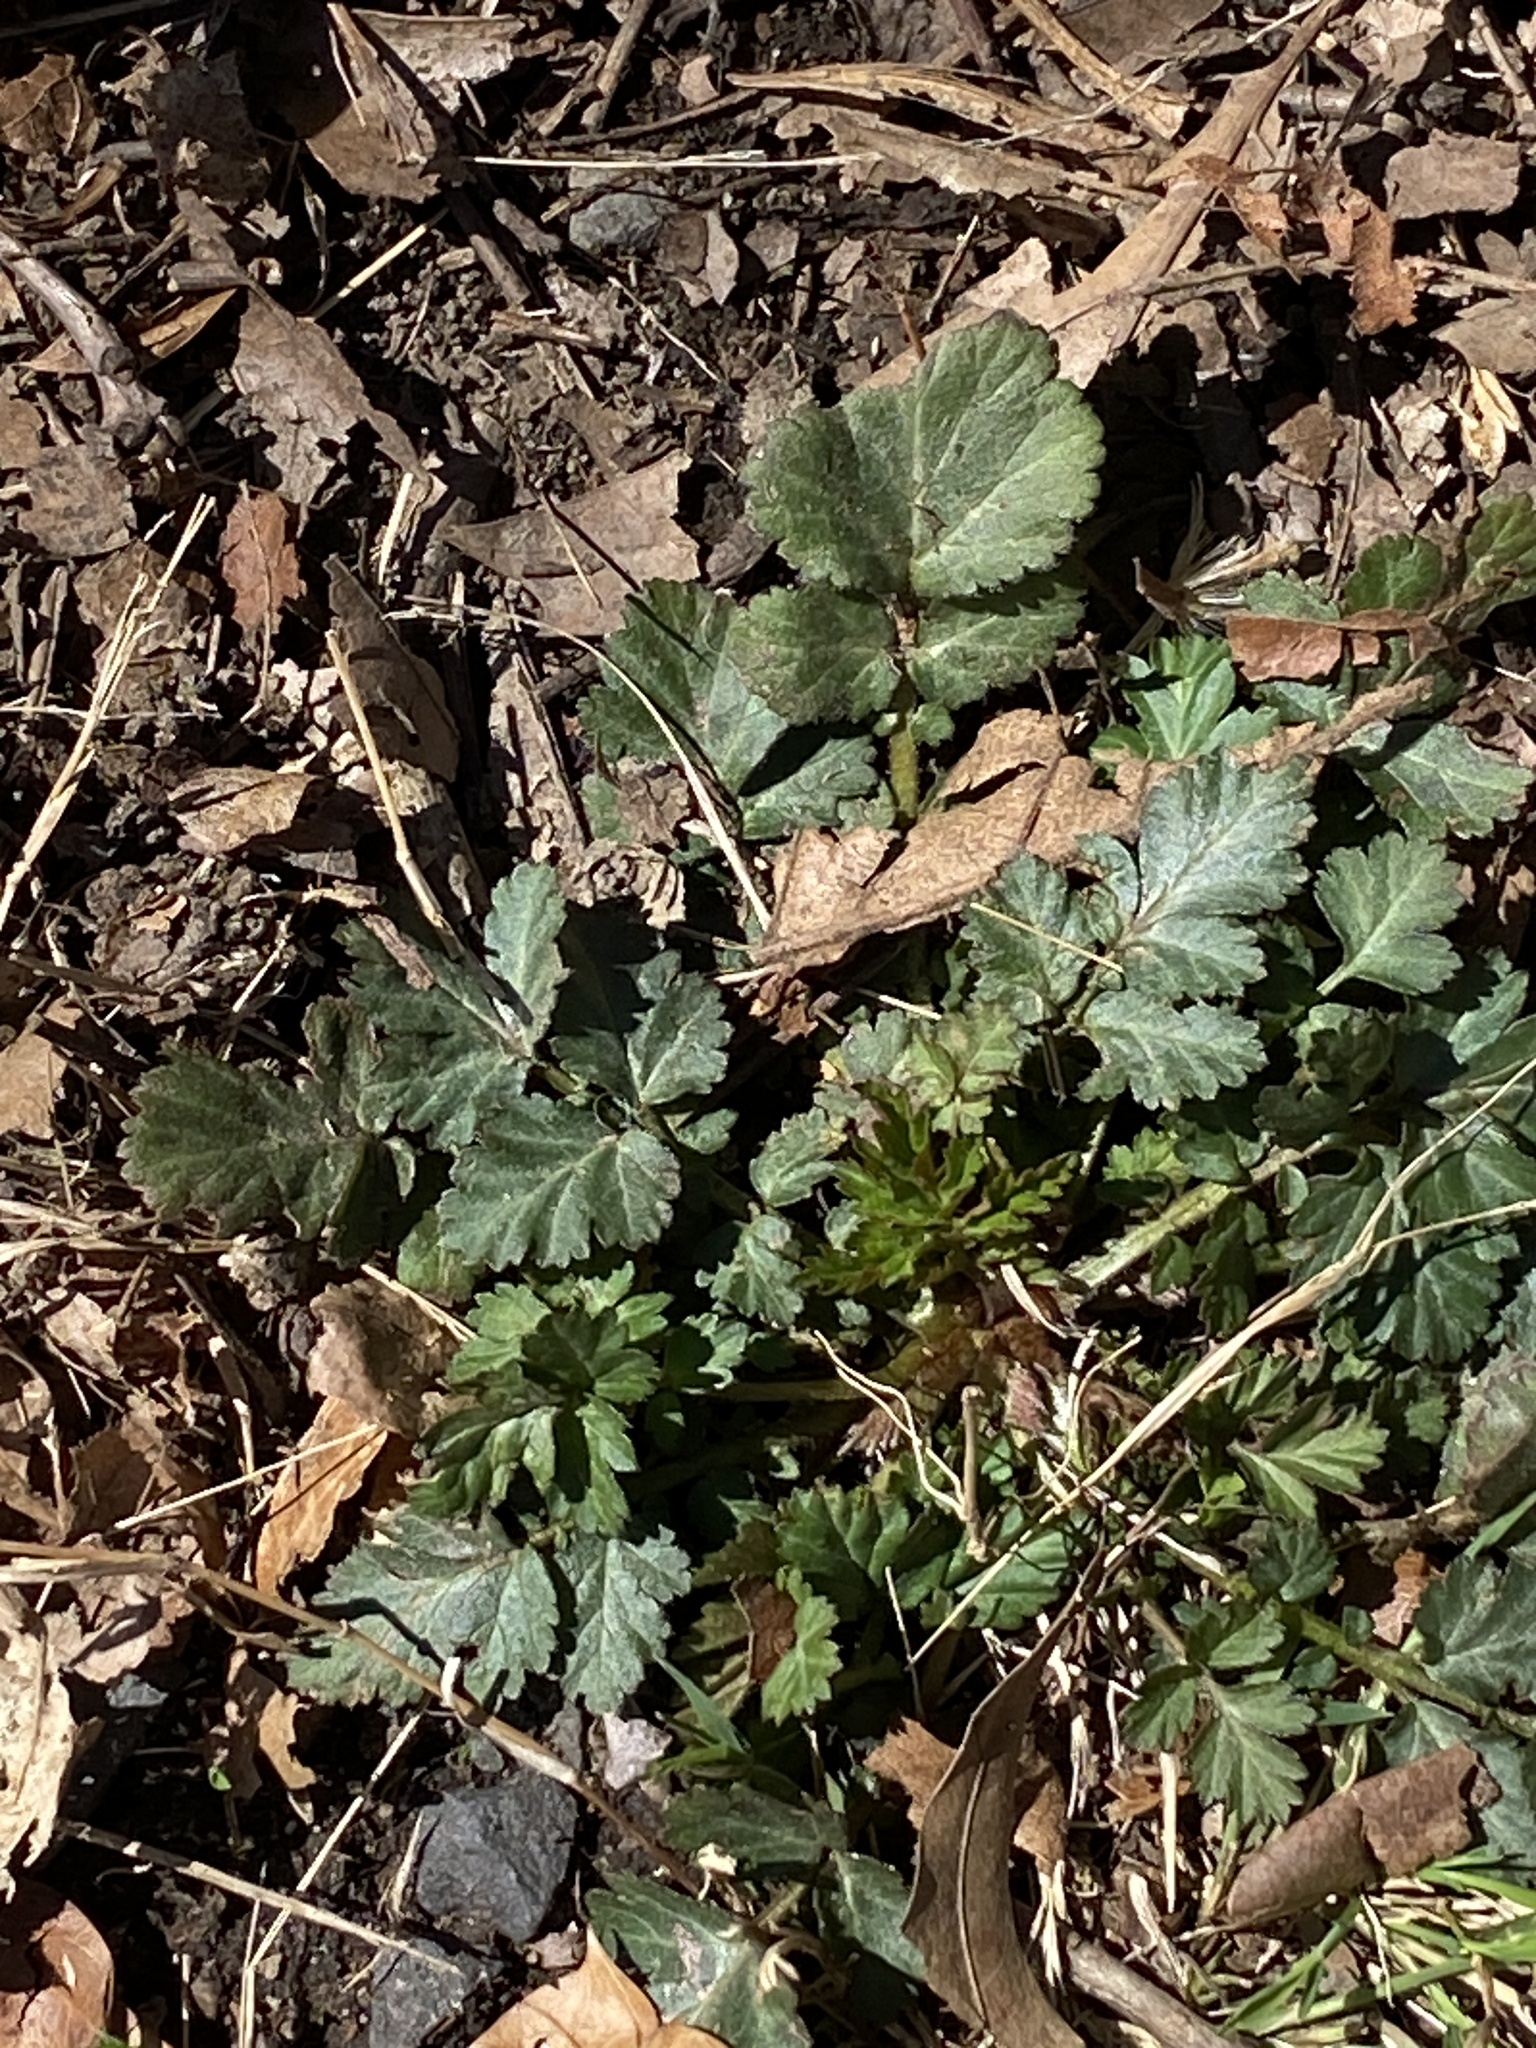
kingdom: Plantae
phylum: Tracheophyta
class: Magnoliopsida
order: Rosales
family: Rosaceae
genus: Geum
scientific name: Geum canadense
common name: White avens
